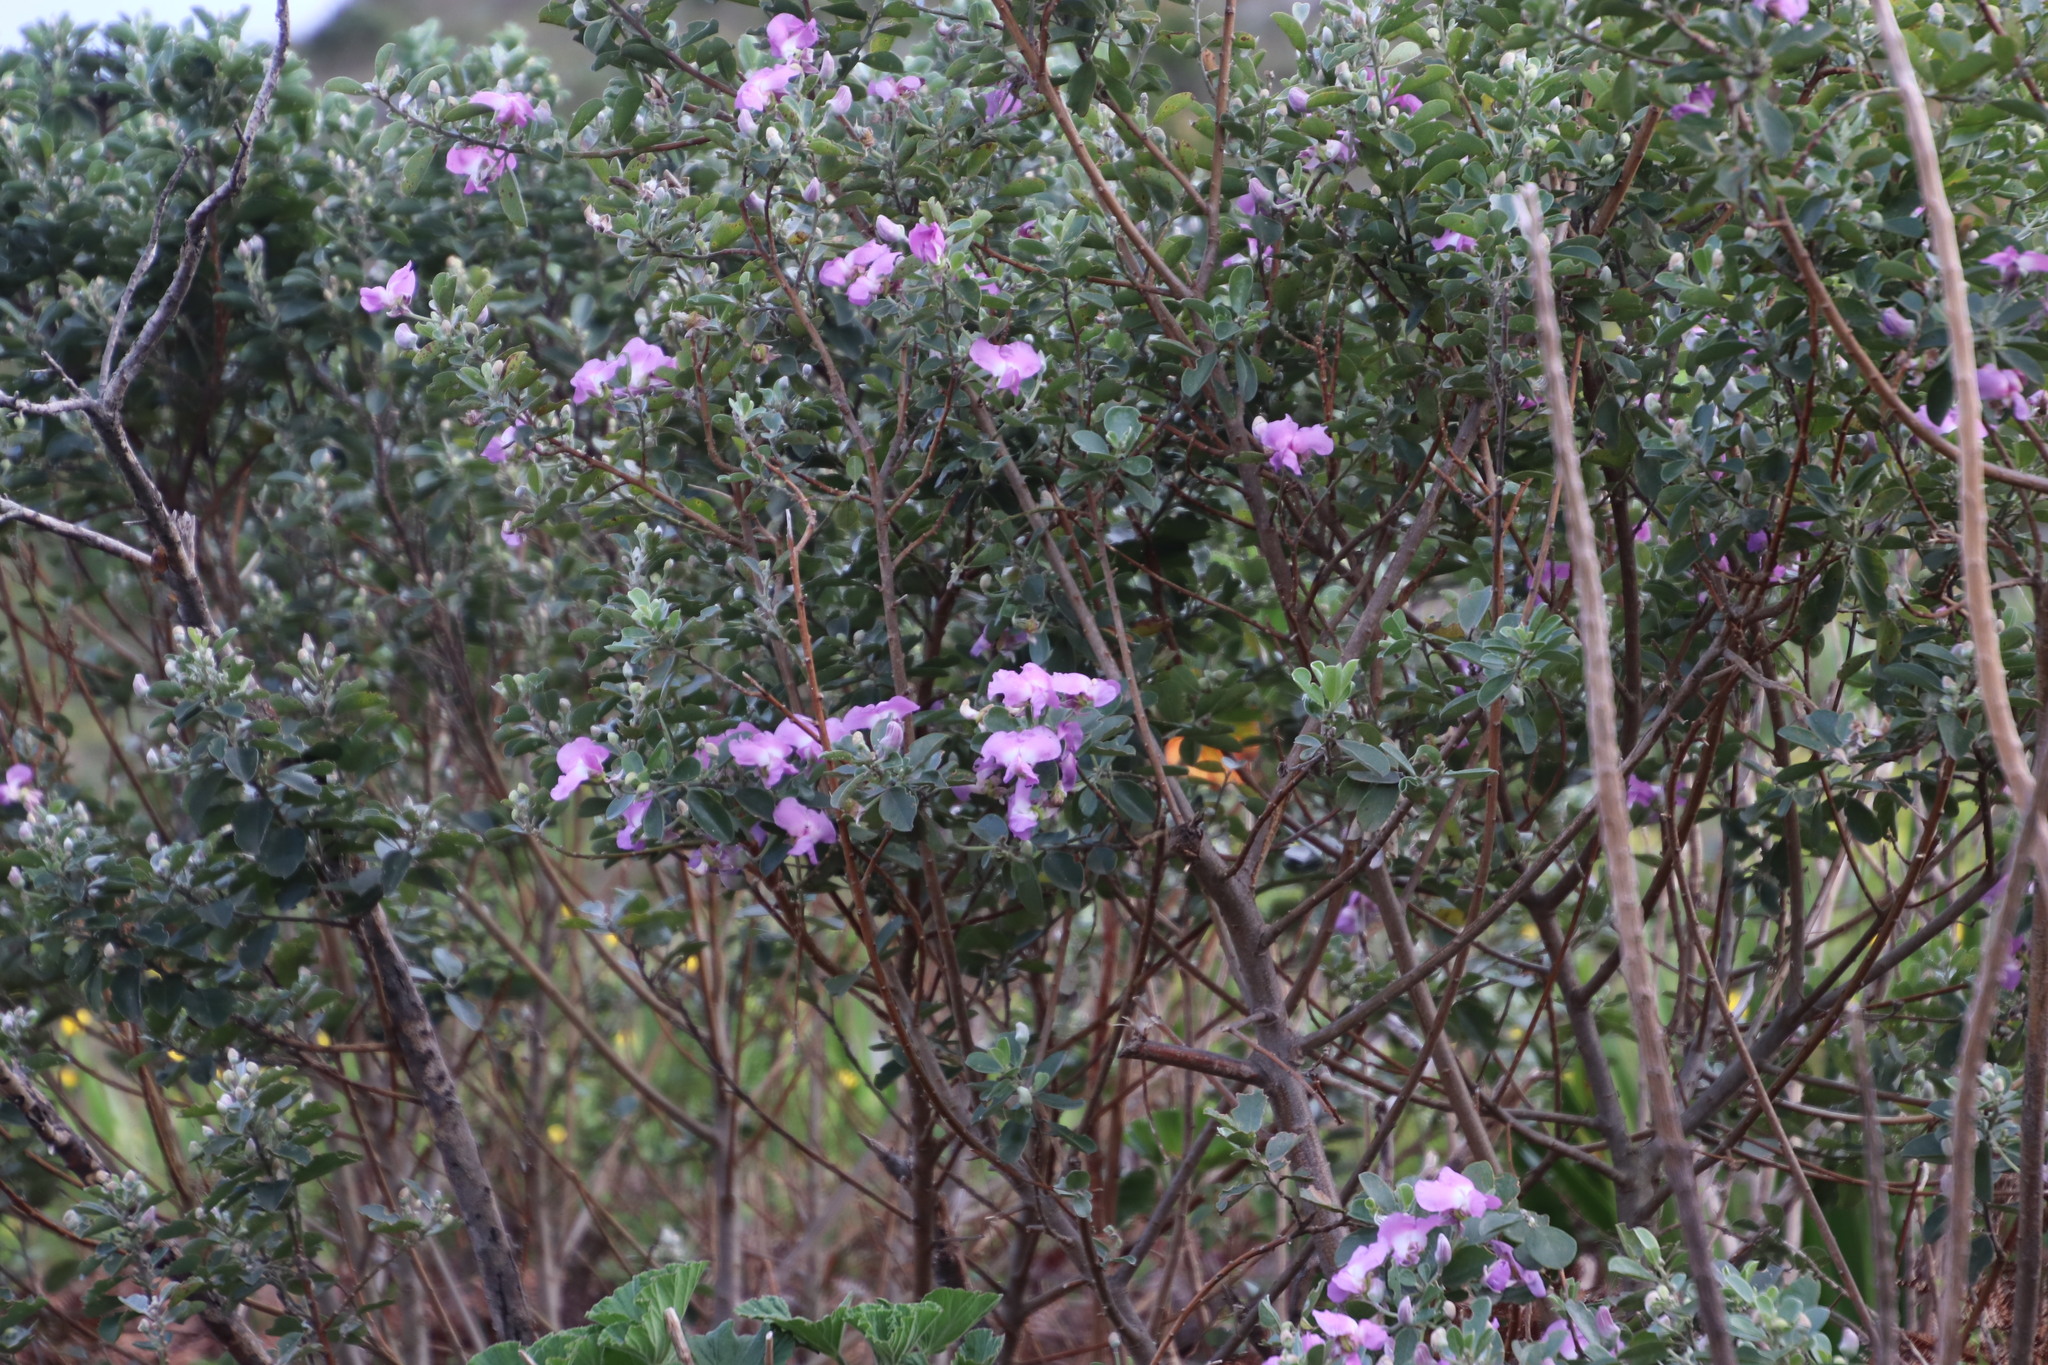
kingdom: Plantae
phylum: Tracheophyta
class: Magnoliopsida
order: Fabales
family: Fabaceae
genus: Podalyria
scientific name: Podalyria calyptrata
